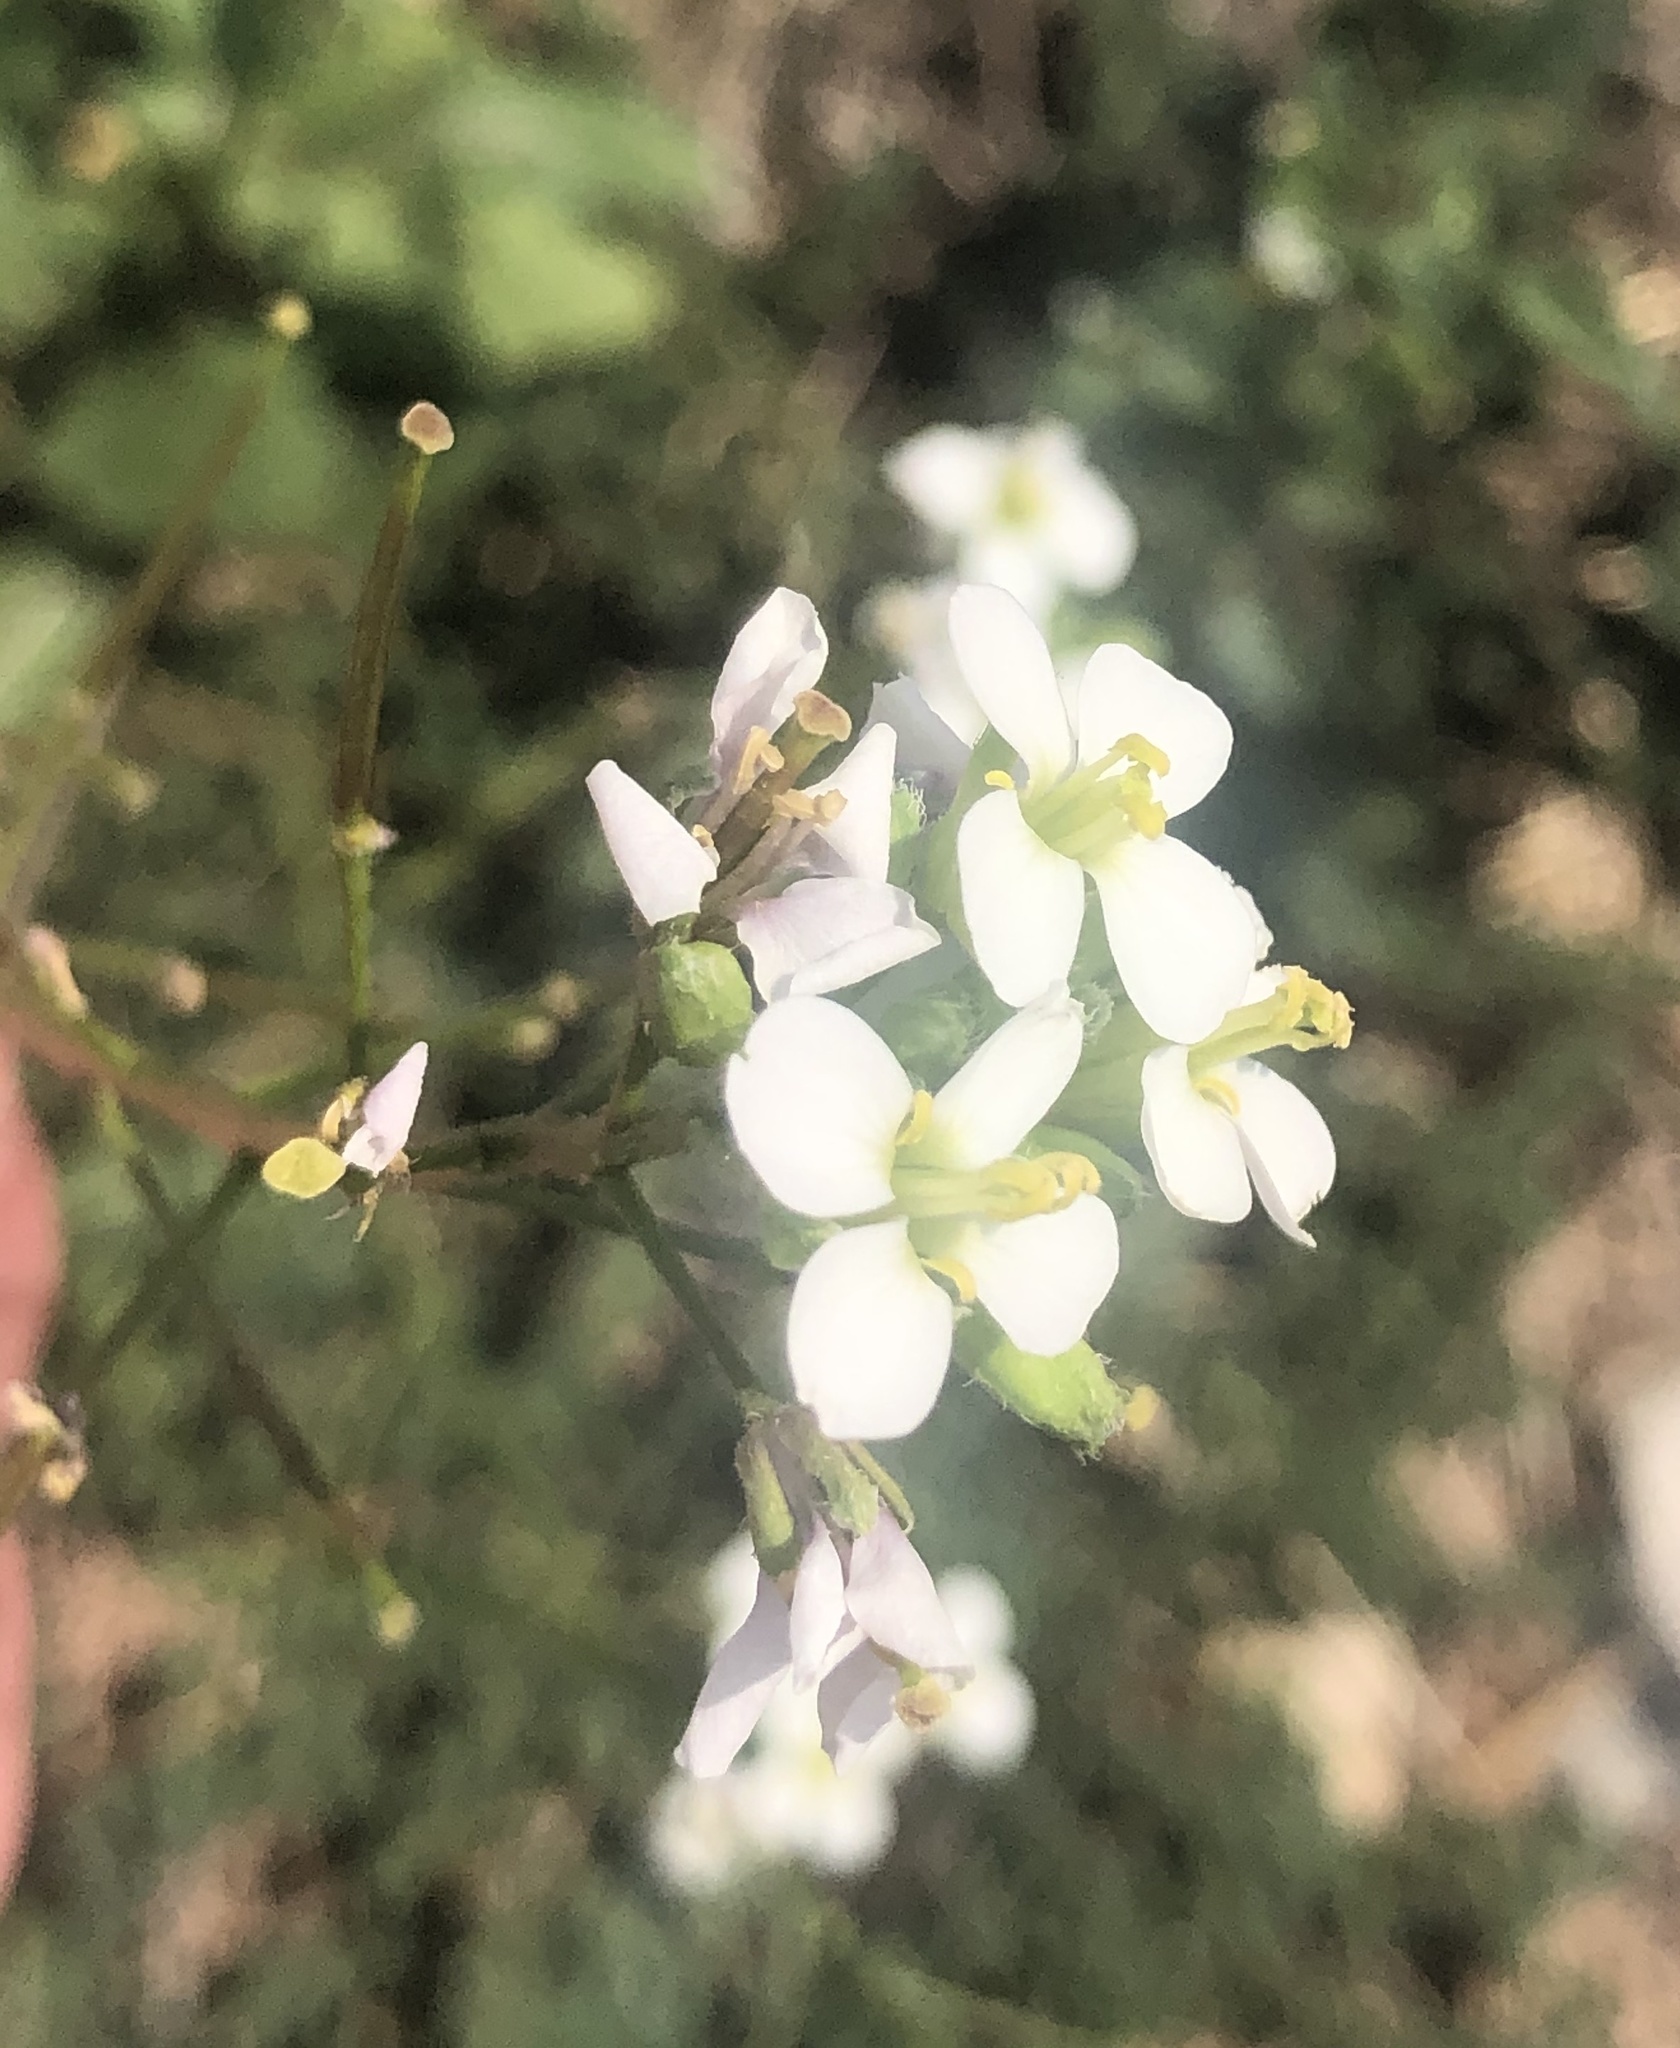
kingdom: Plantae
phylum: Tracheophyta
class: Magnoliopsida
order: Brassicales
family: Brassicaceae
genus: Diplotaxis
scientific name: Diplotaxis erucoides
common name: White rocket
